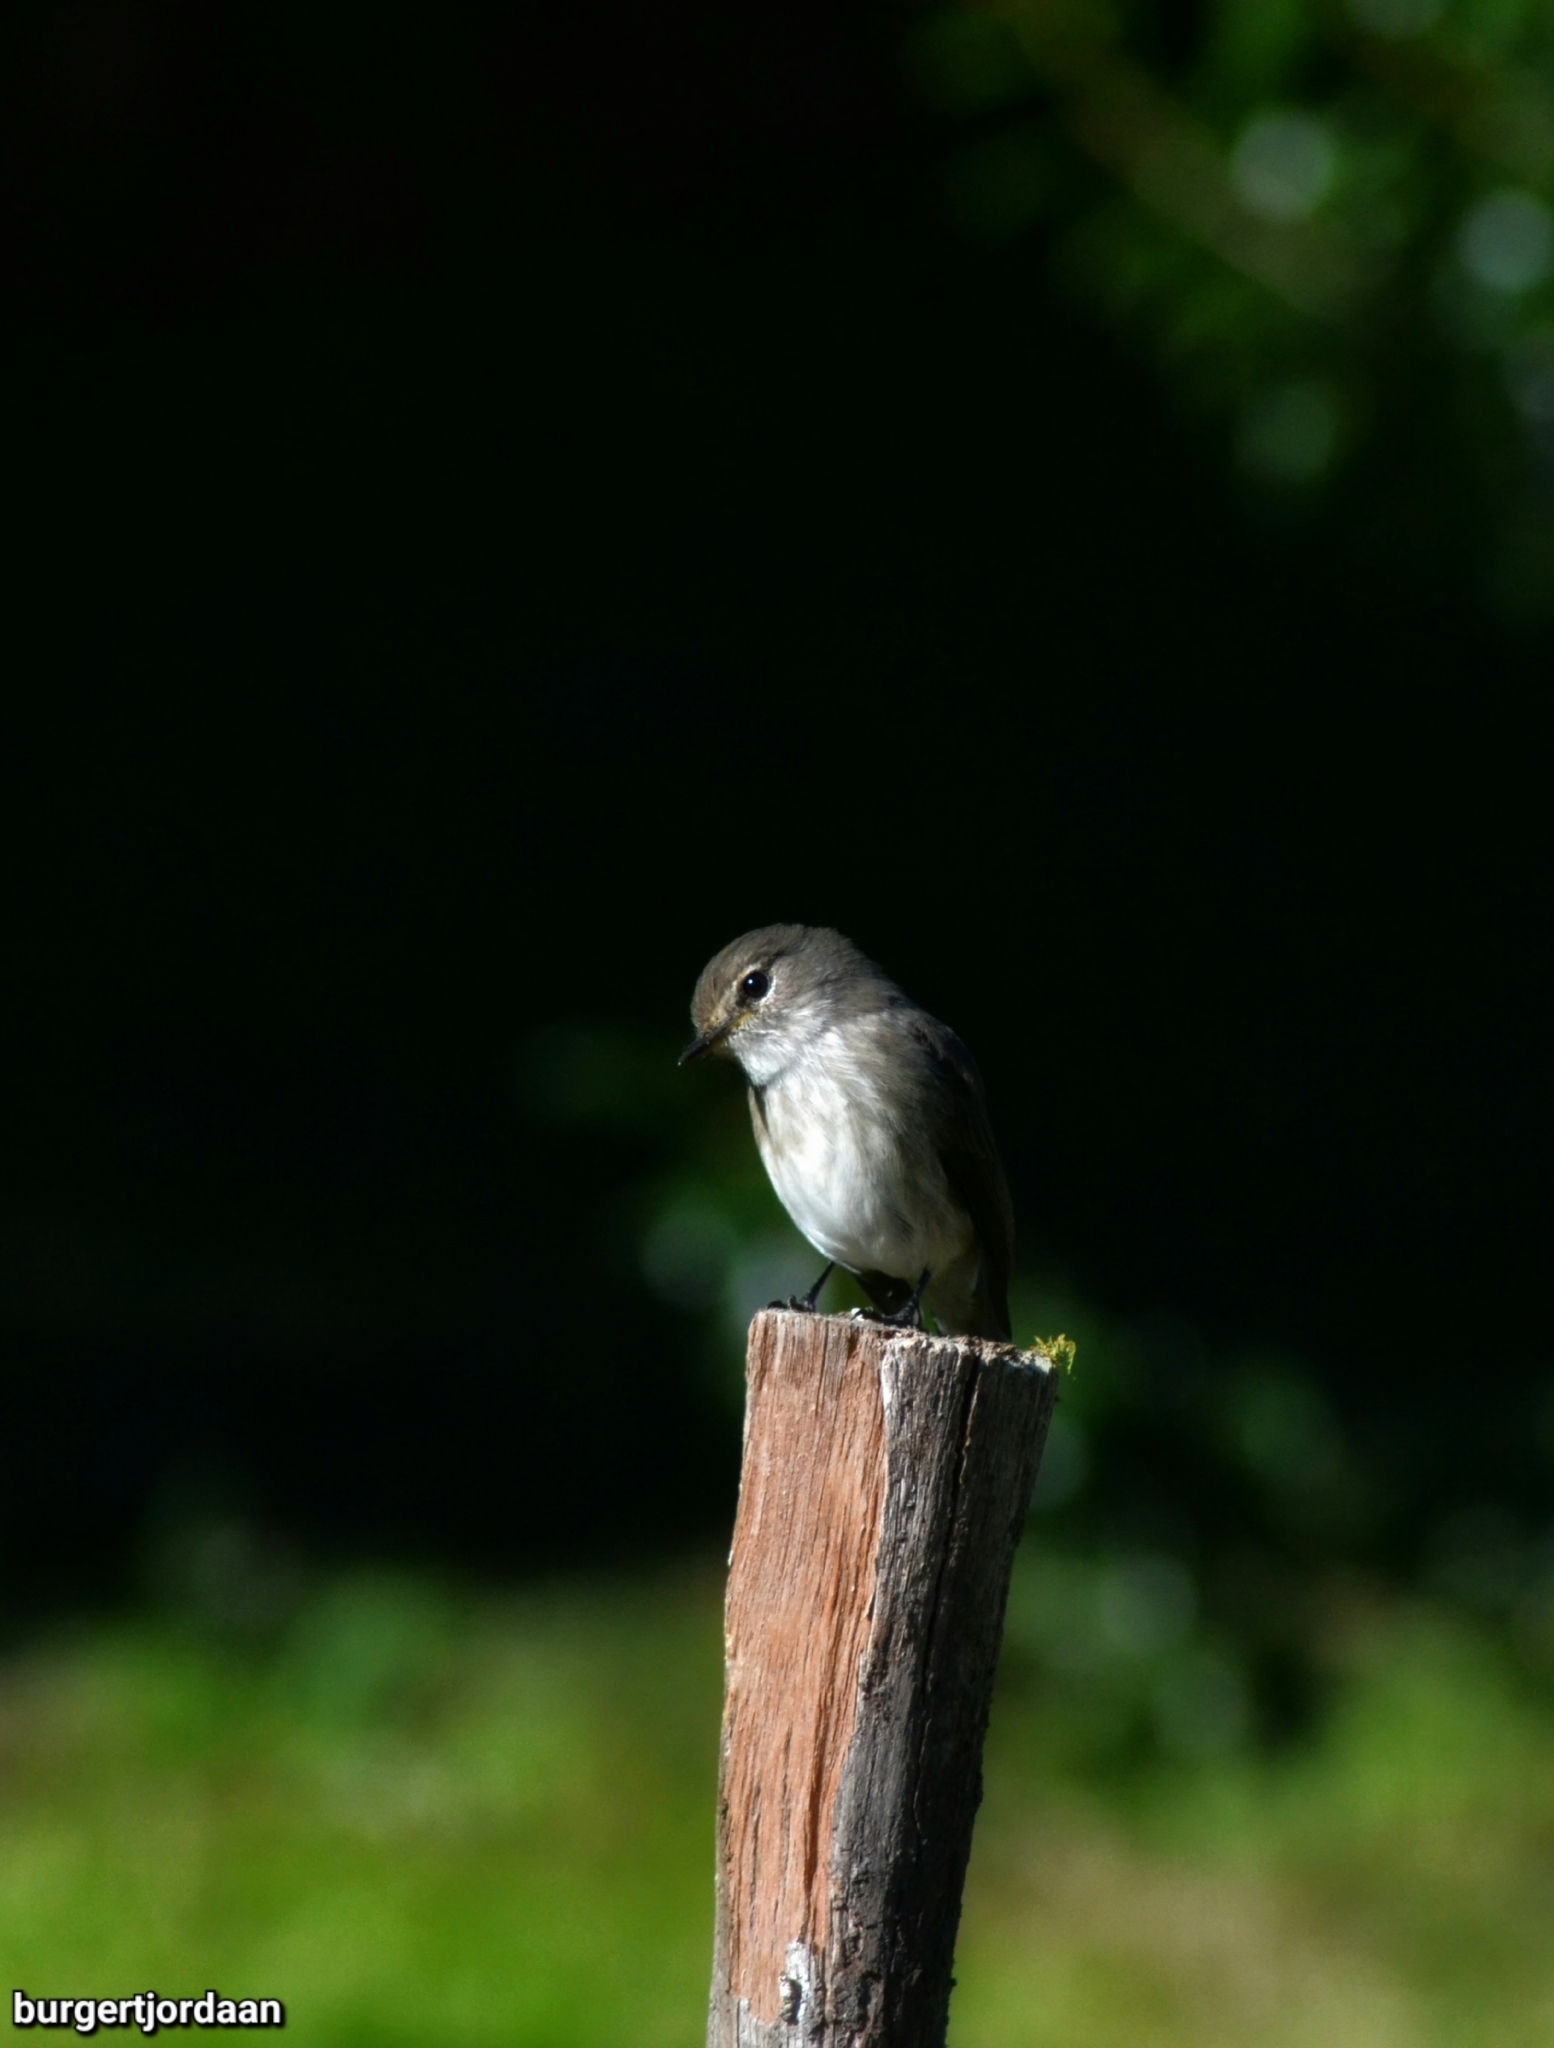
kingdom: Animalia
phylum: Chordata
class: Aves
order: Passeriformes
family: Muscicapidae
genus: Muscicapa
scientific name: Muscicapa adusta
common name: African dusky flycatcher
